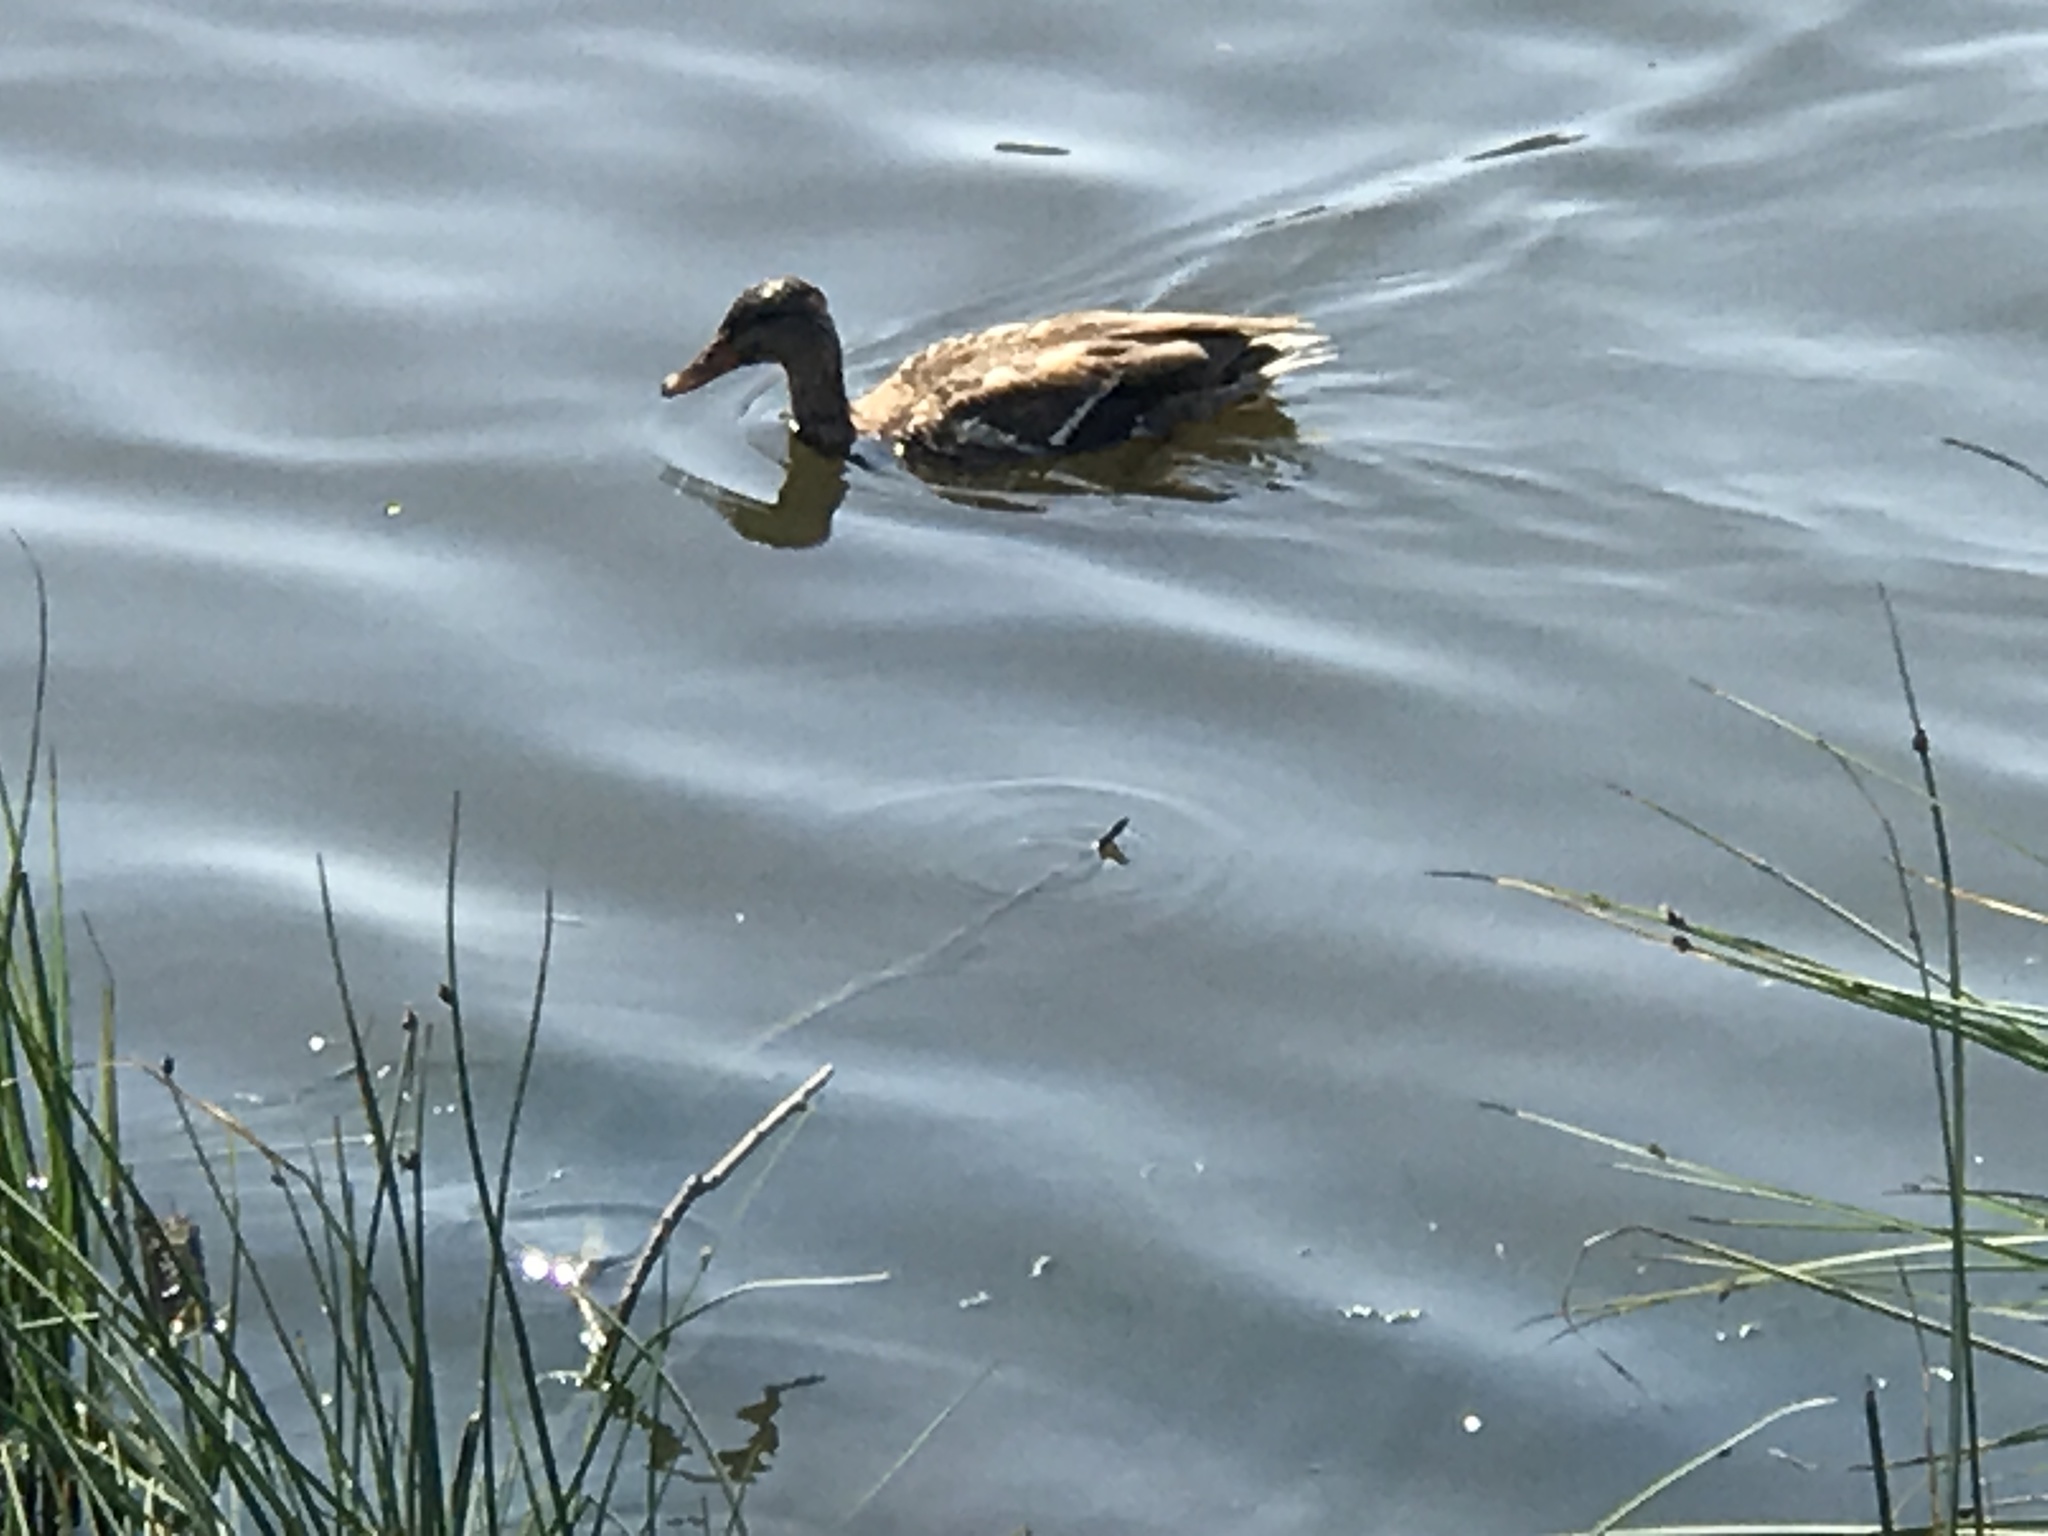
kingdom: Animalia
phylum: Chordata
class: Aves
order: Anseriformes
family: Anatidae
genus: Anas
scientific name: Anas platyrhynchos
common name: Mallard
